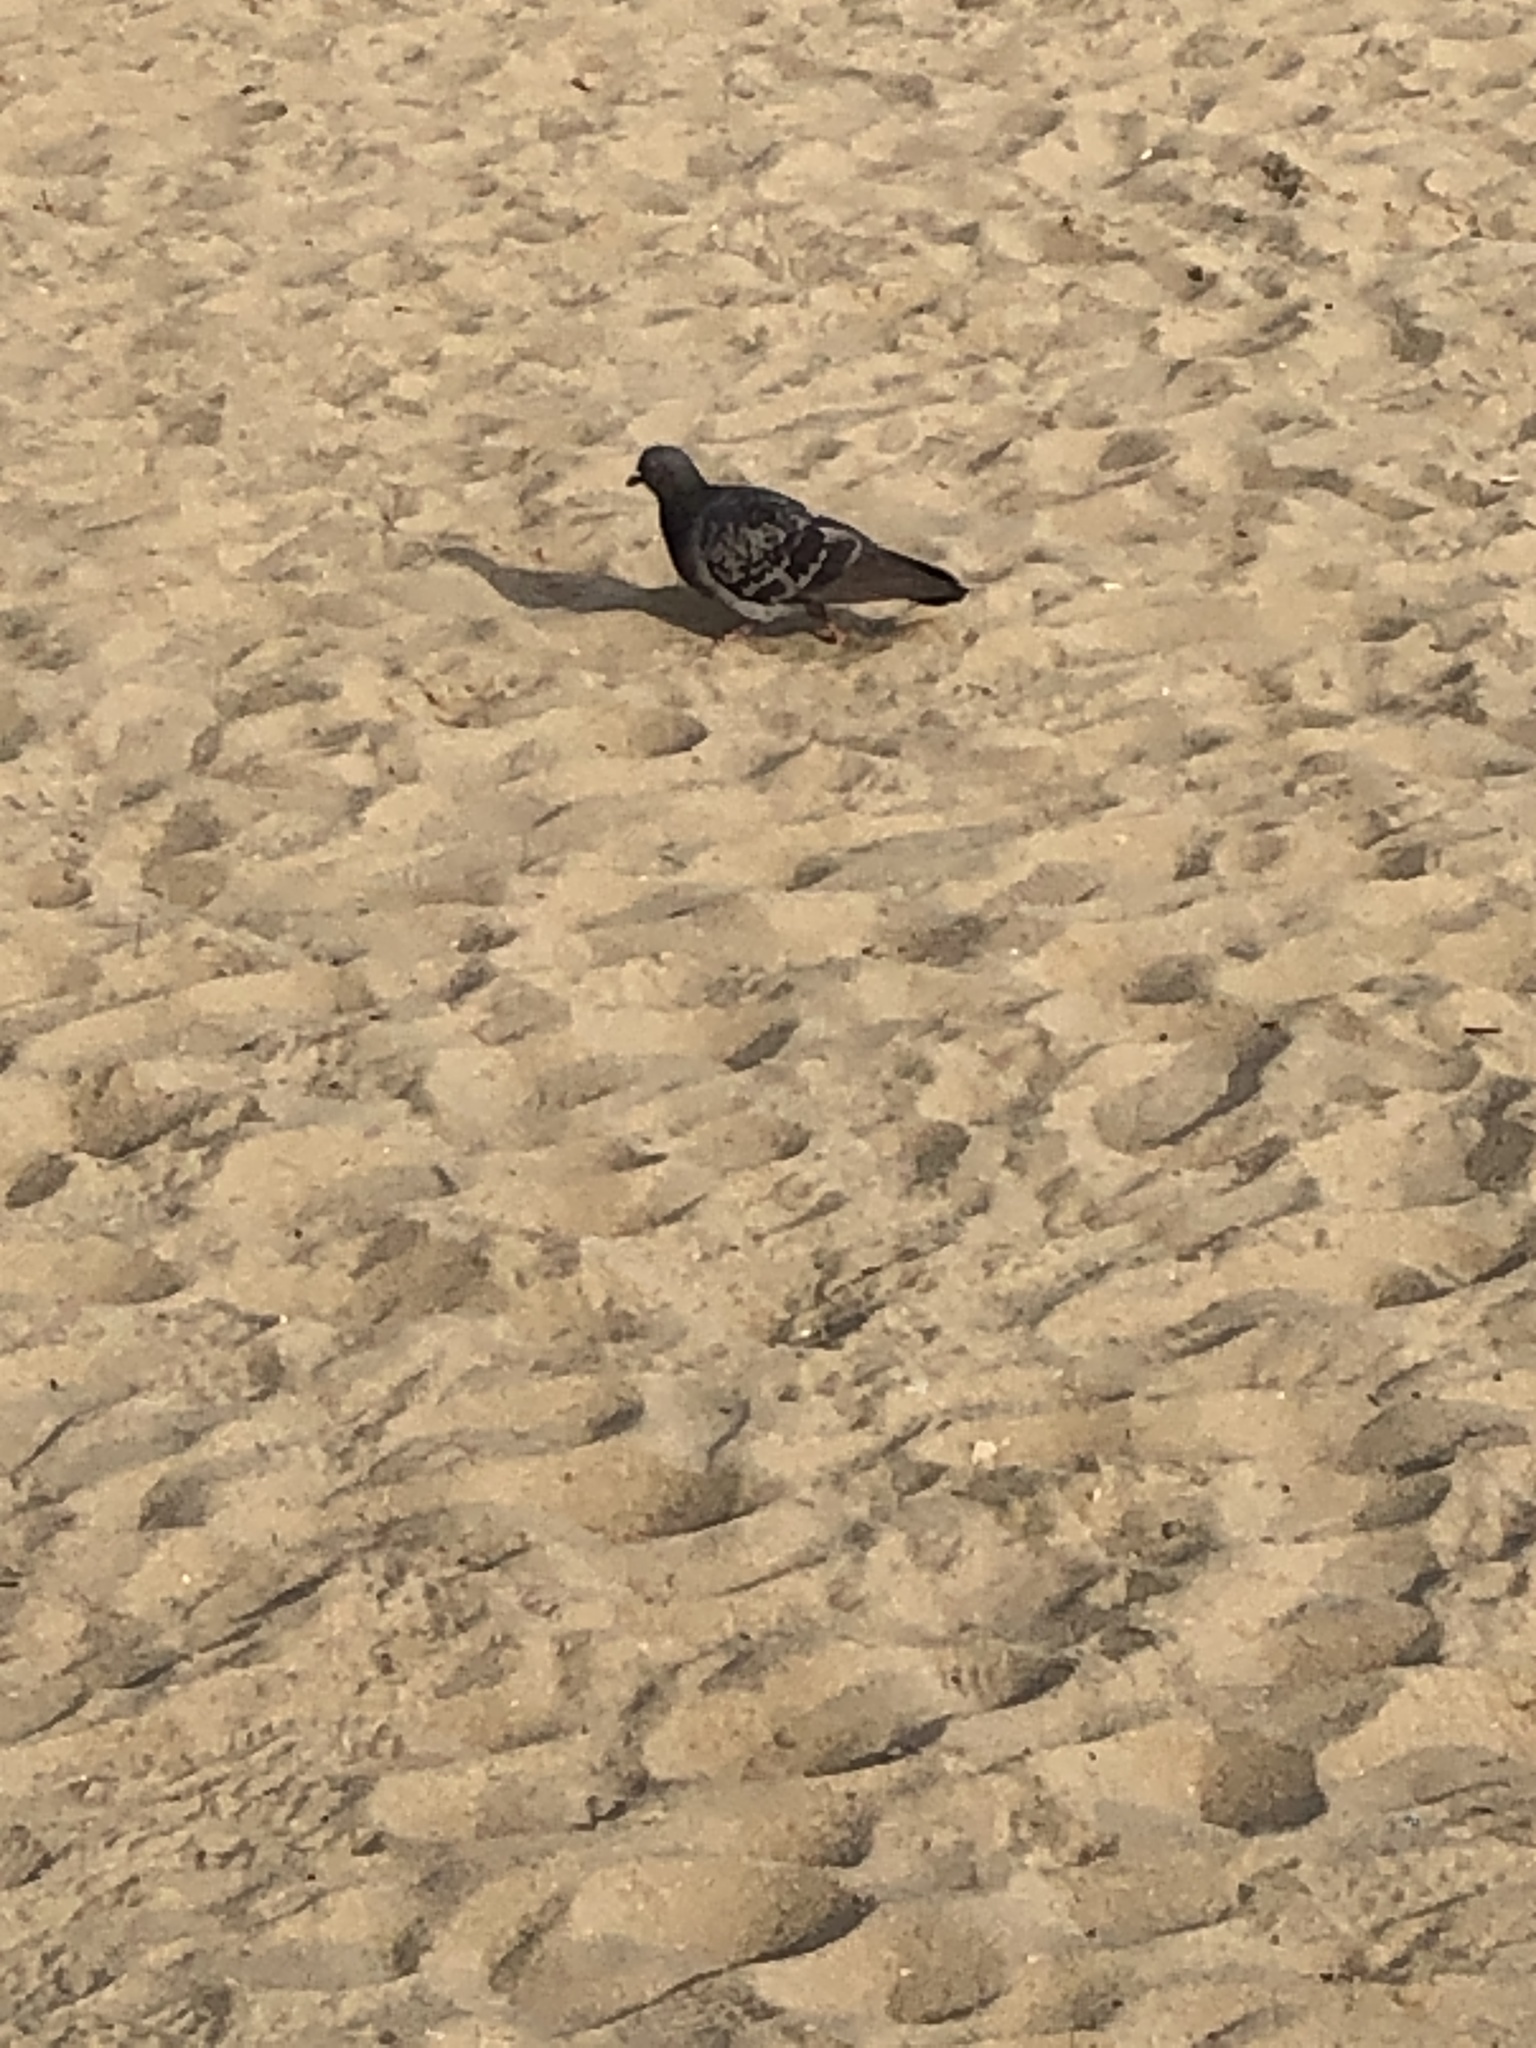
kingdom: Animalia
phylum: Chordata
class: Aves
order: Columbiformes
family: Columbidae
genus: Columba
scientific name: Columba livia
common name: Rock pigeon
